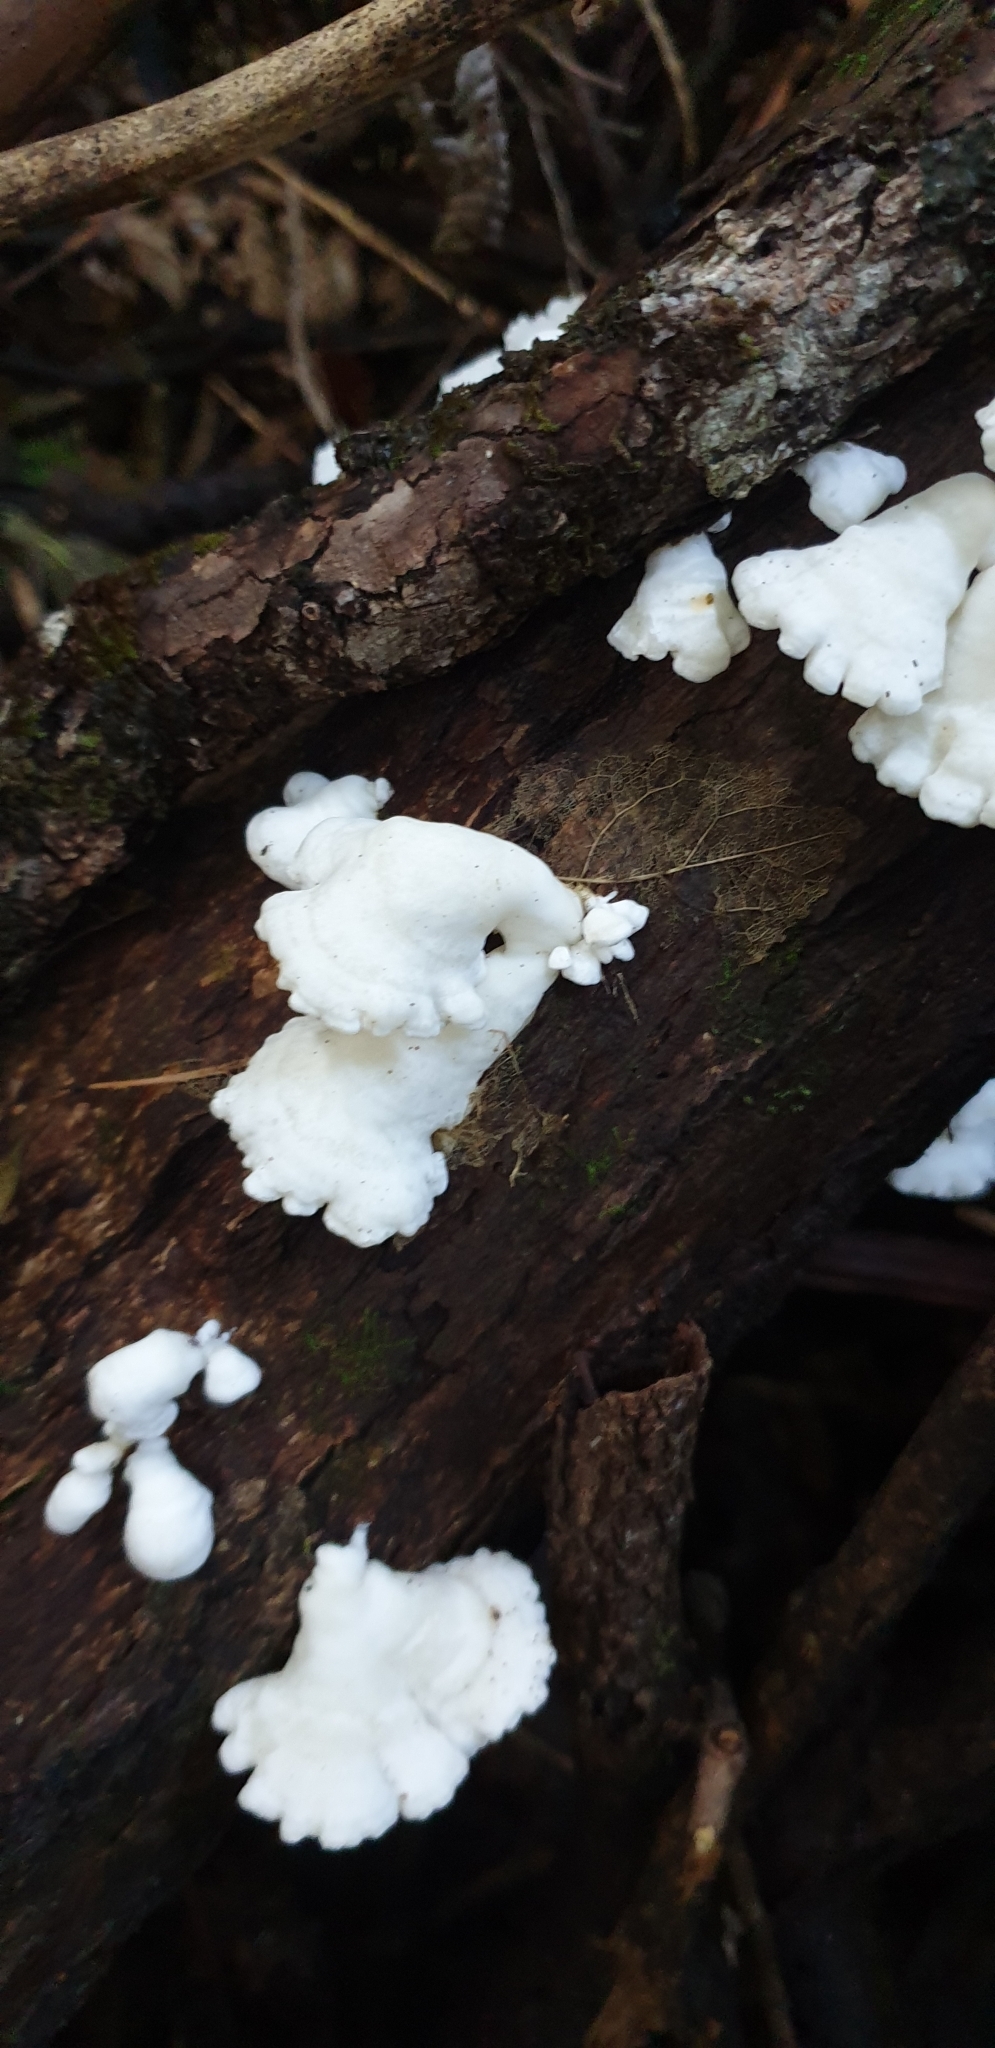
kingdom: Fungi
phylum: Basidiomycota
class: Agaricomycetes
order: Polyporales
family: Irpicaceae
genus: Gloeoporus
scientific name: Gloeoporus phlebophorus
